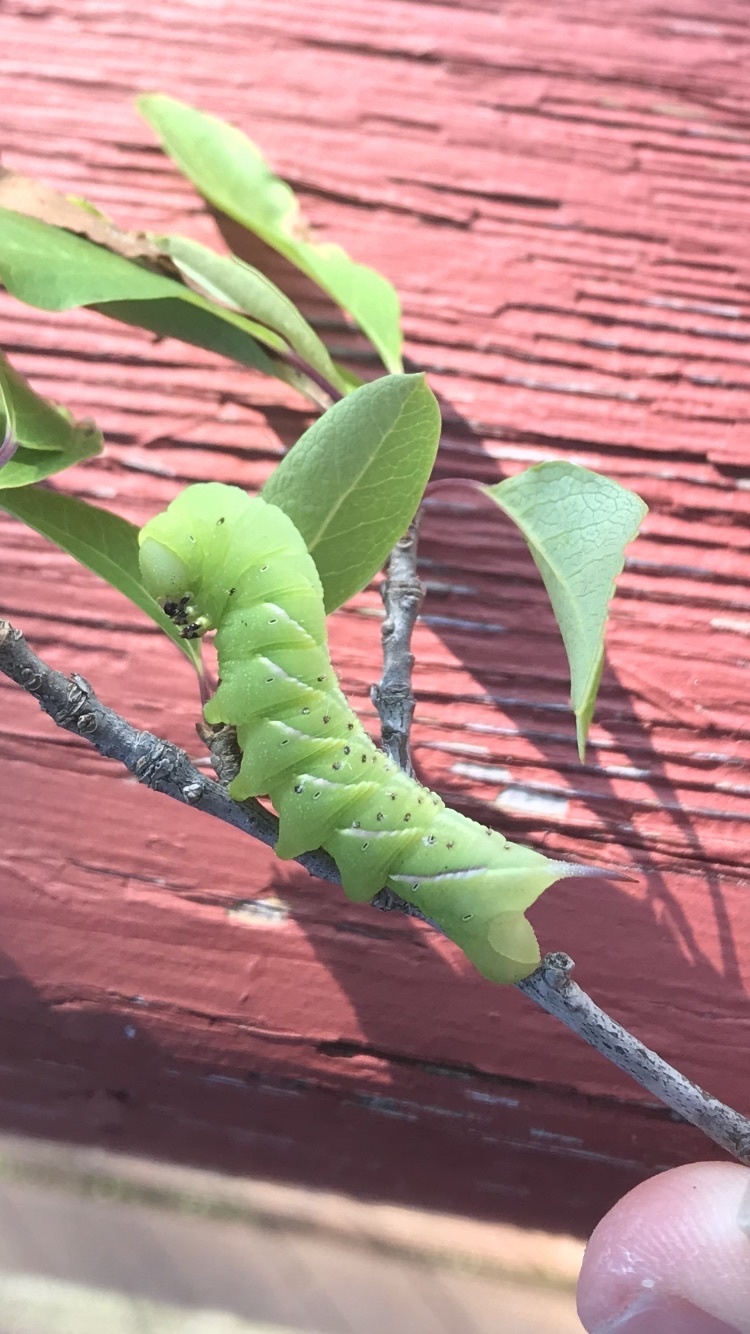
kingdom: Animalia
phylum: Arthropoda
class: Insecta
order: Lepidoptera
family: Sphingidae
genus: Dolba
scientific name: Dolba hyloeus
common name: Pawpaw sphinx
